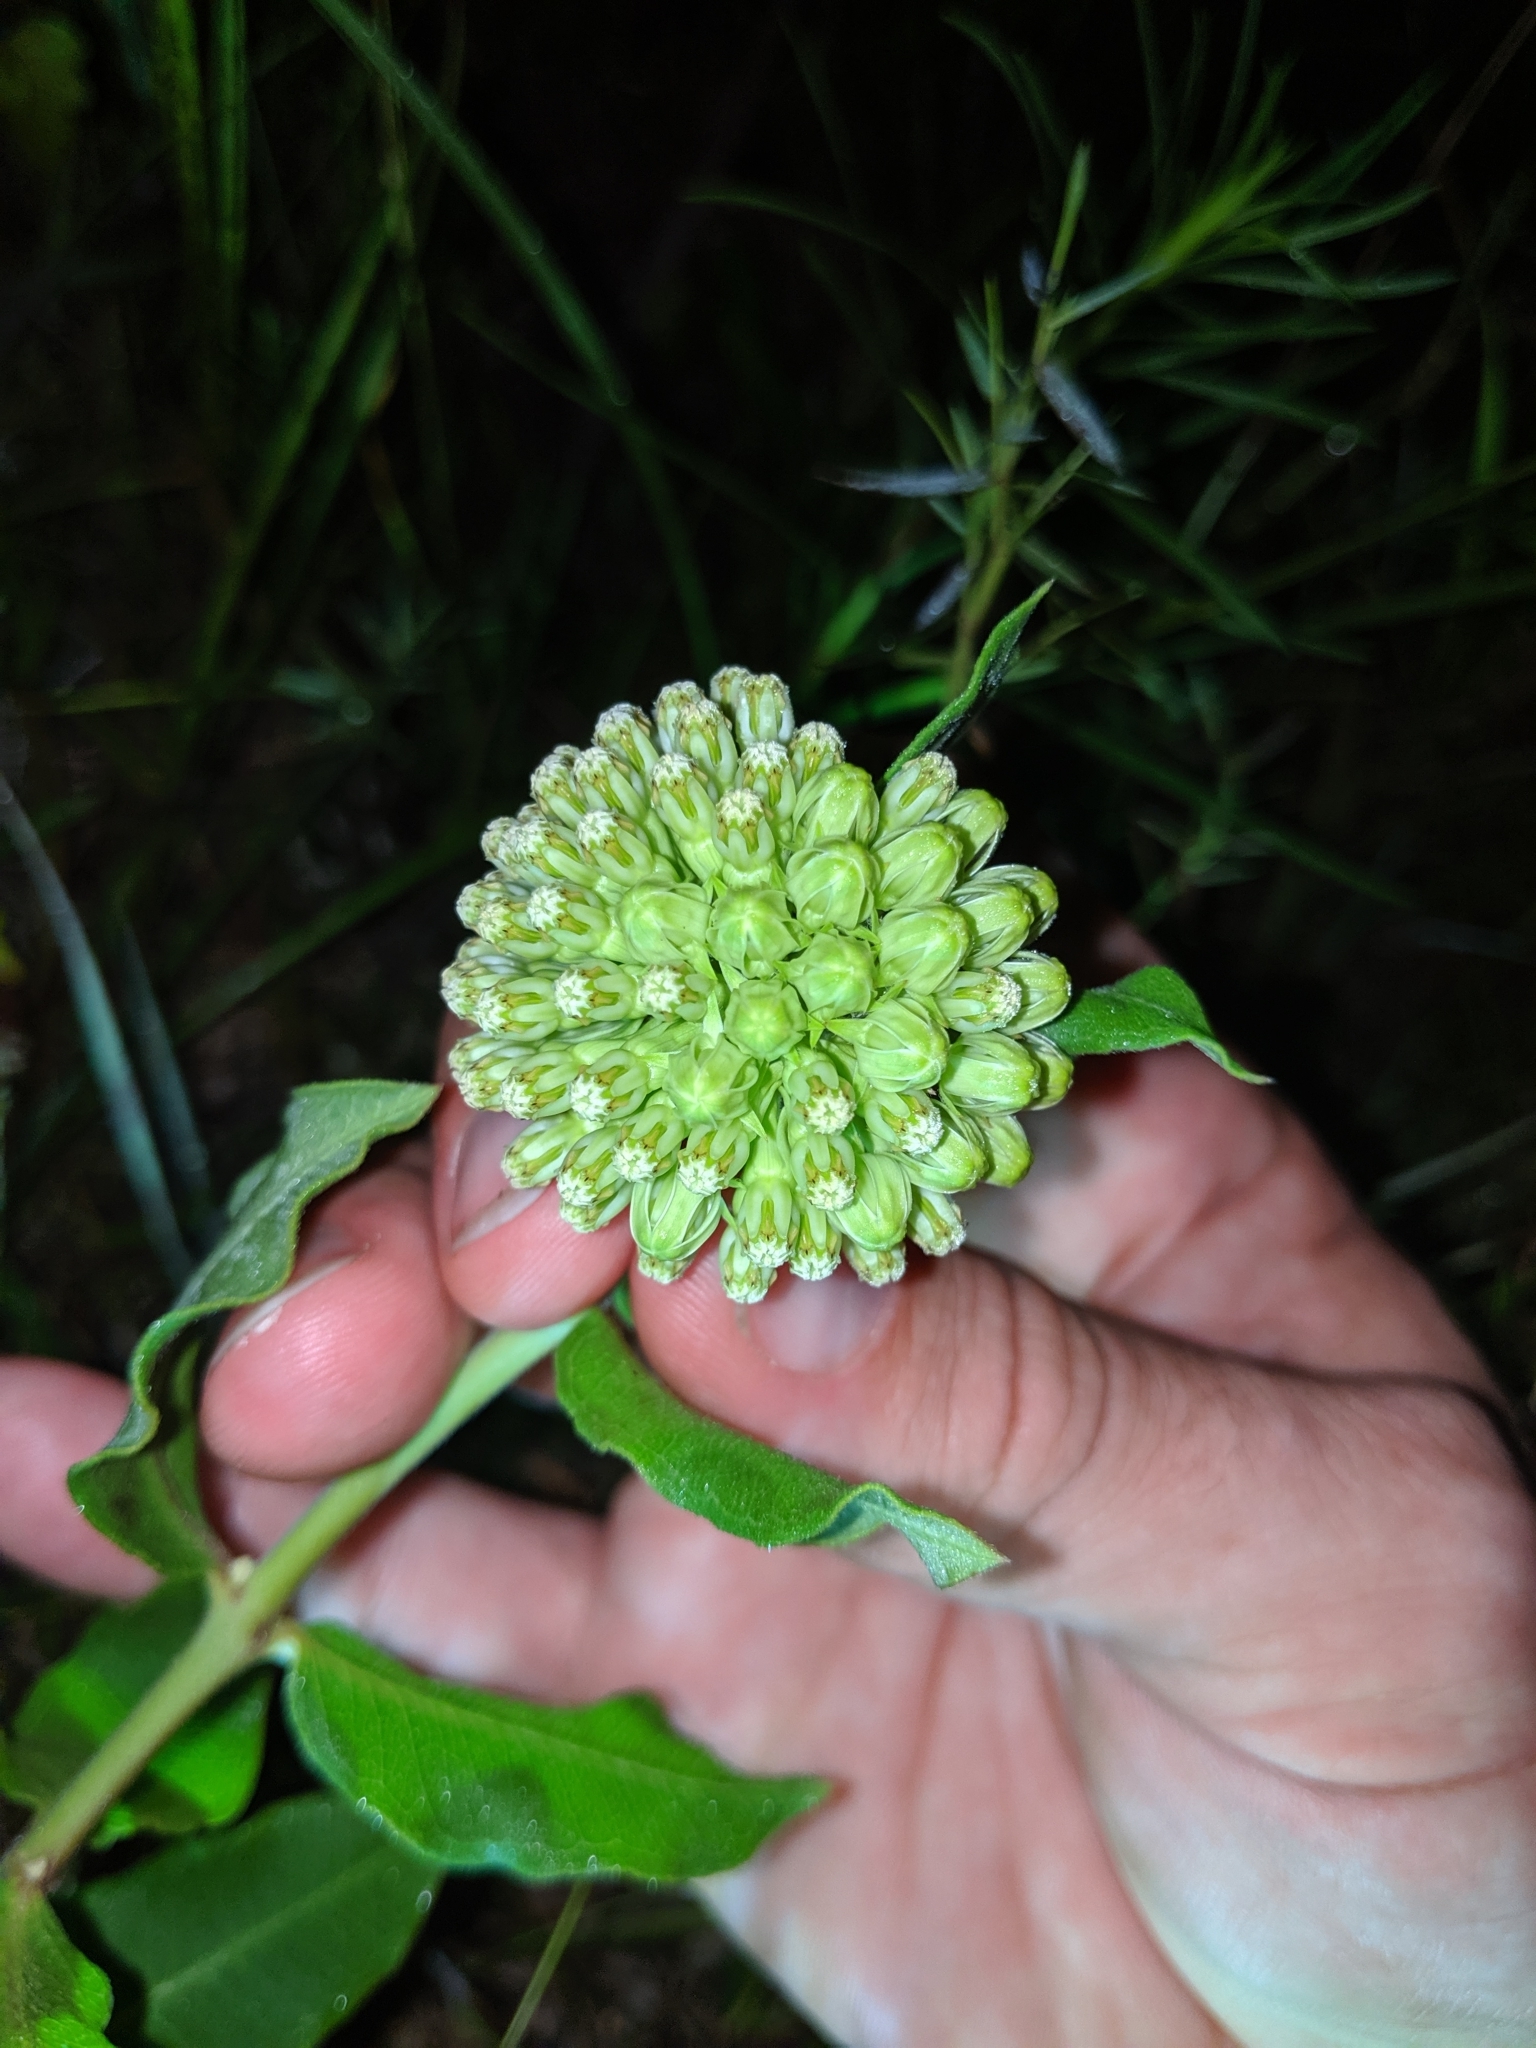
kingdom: Plantae
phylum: Tracheophyta
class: Magnoliopsida
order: Gentianales
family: Apocynaceae
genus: Asclepias
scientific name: Asclepias viridiflora
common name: Green comet milkweed
